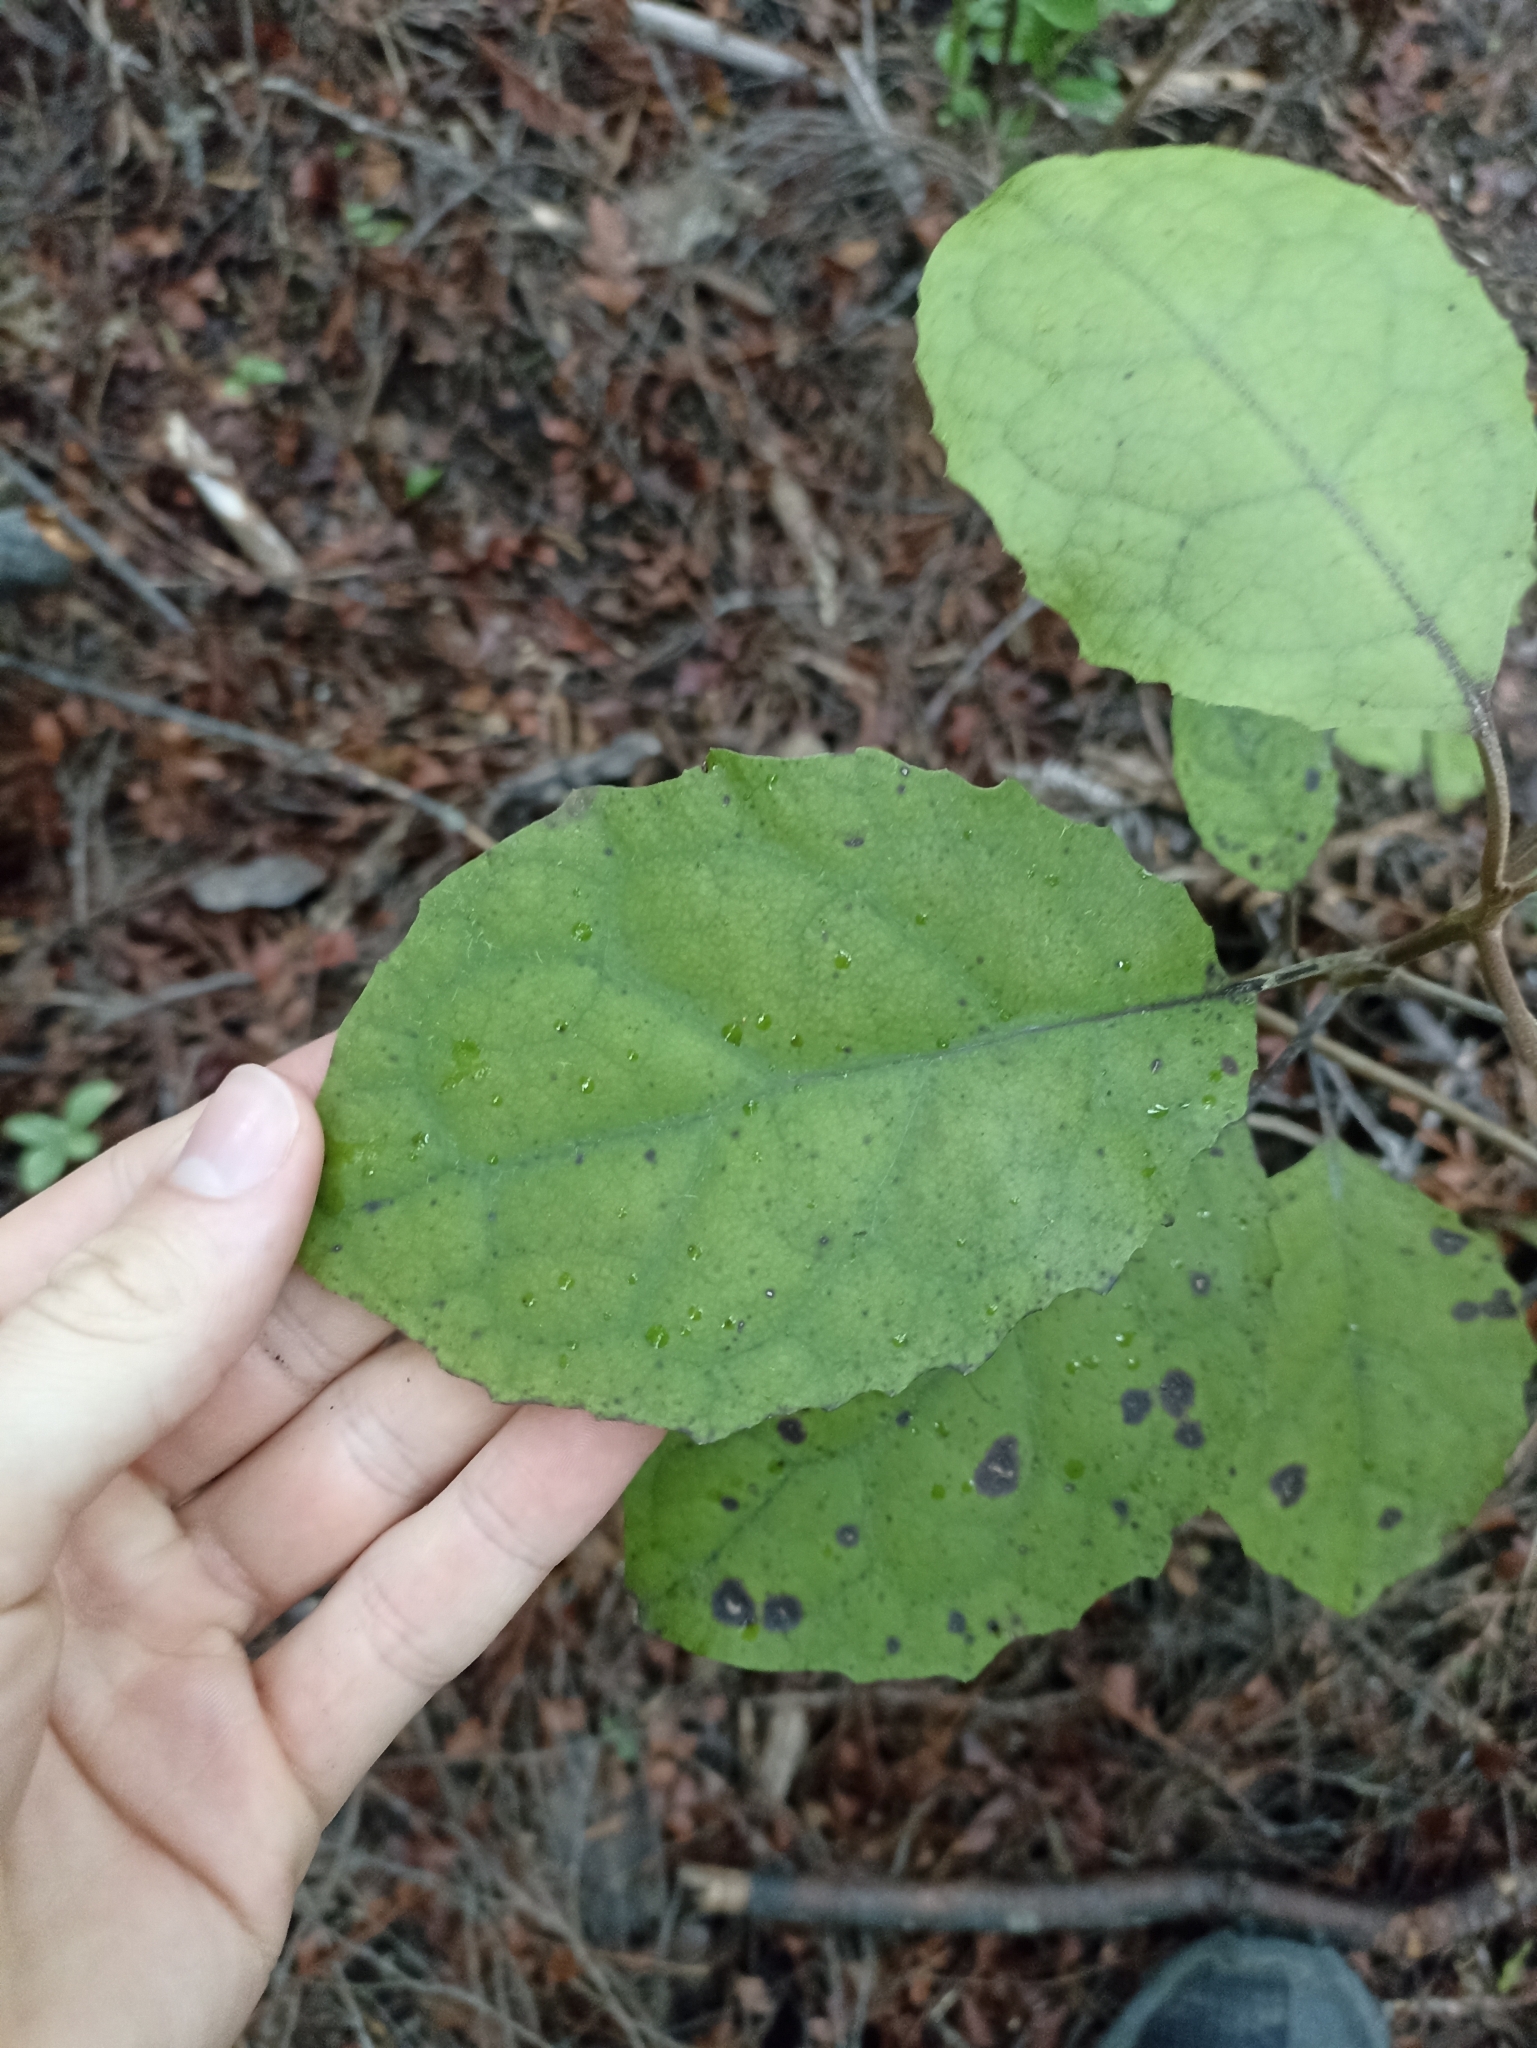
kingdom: Plantae
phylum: Tracheophyta
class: Magnoliopsida
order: Asterales
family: Asteraceae
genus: Olearia
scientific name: Olearia rani
